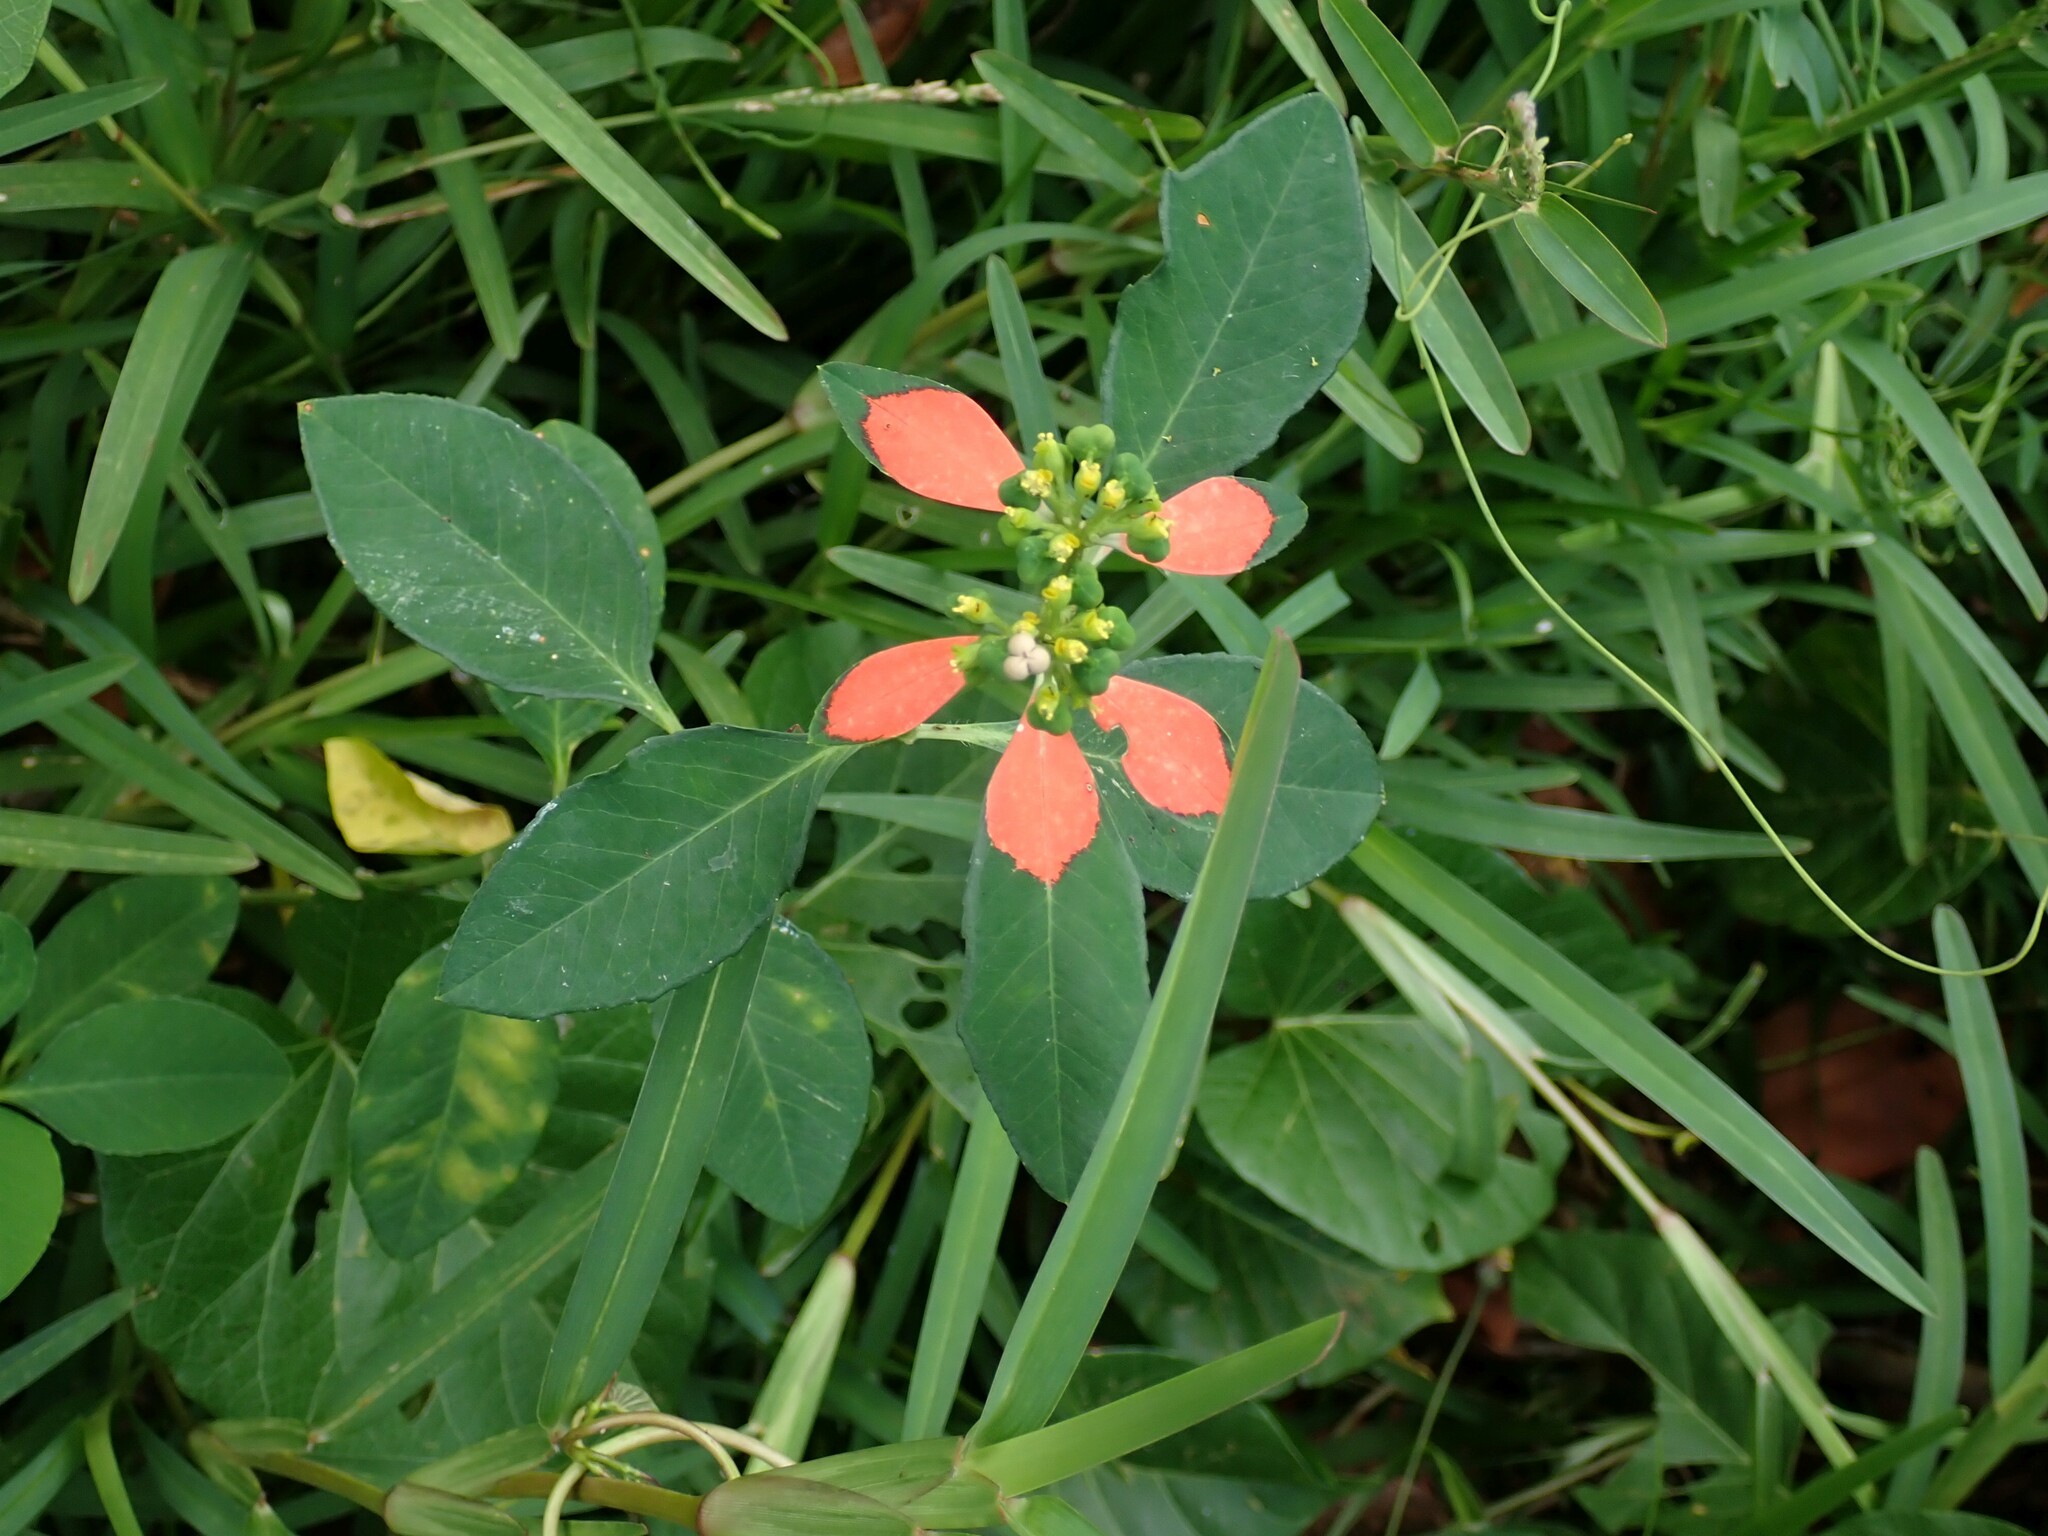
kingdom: Plantae
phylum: Tracheophyta
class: Magnoliopsida
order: Malpighiales
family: Euphorbiaceae
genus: Euphorbia
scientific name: Euphorbia heterophylla
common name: Mexican fireplant
